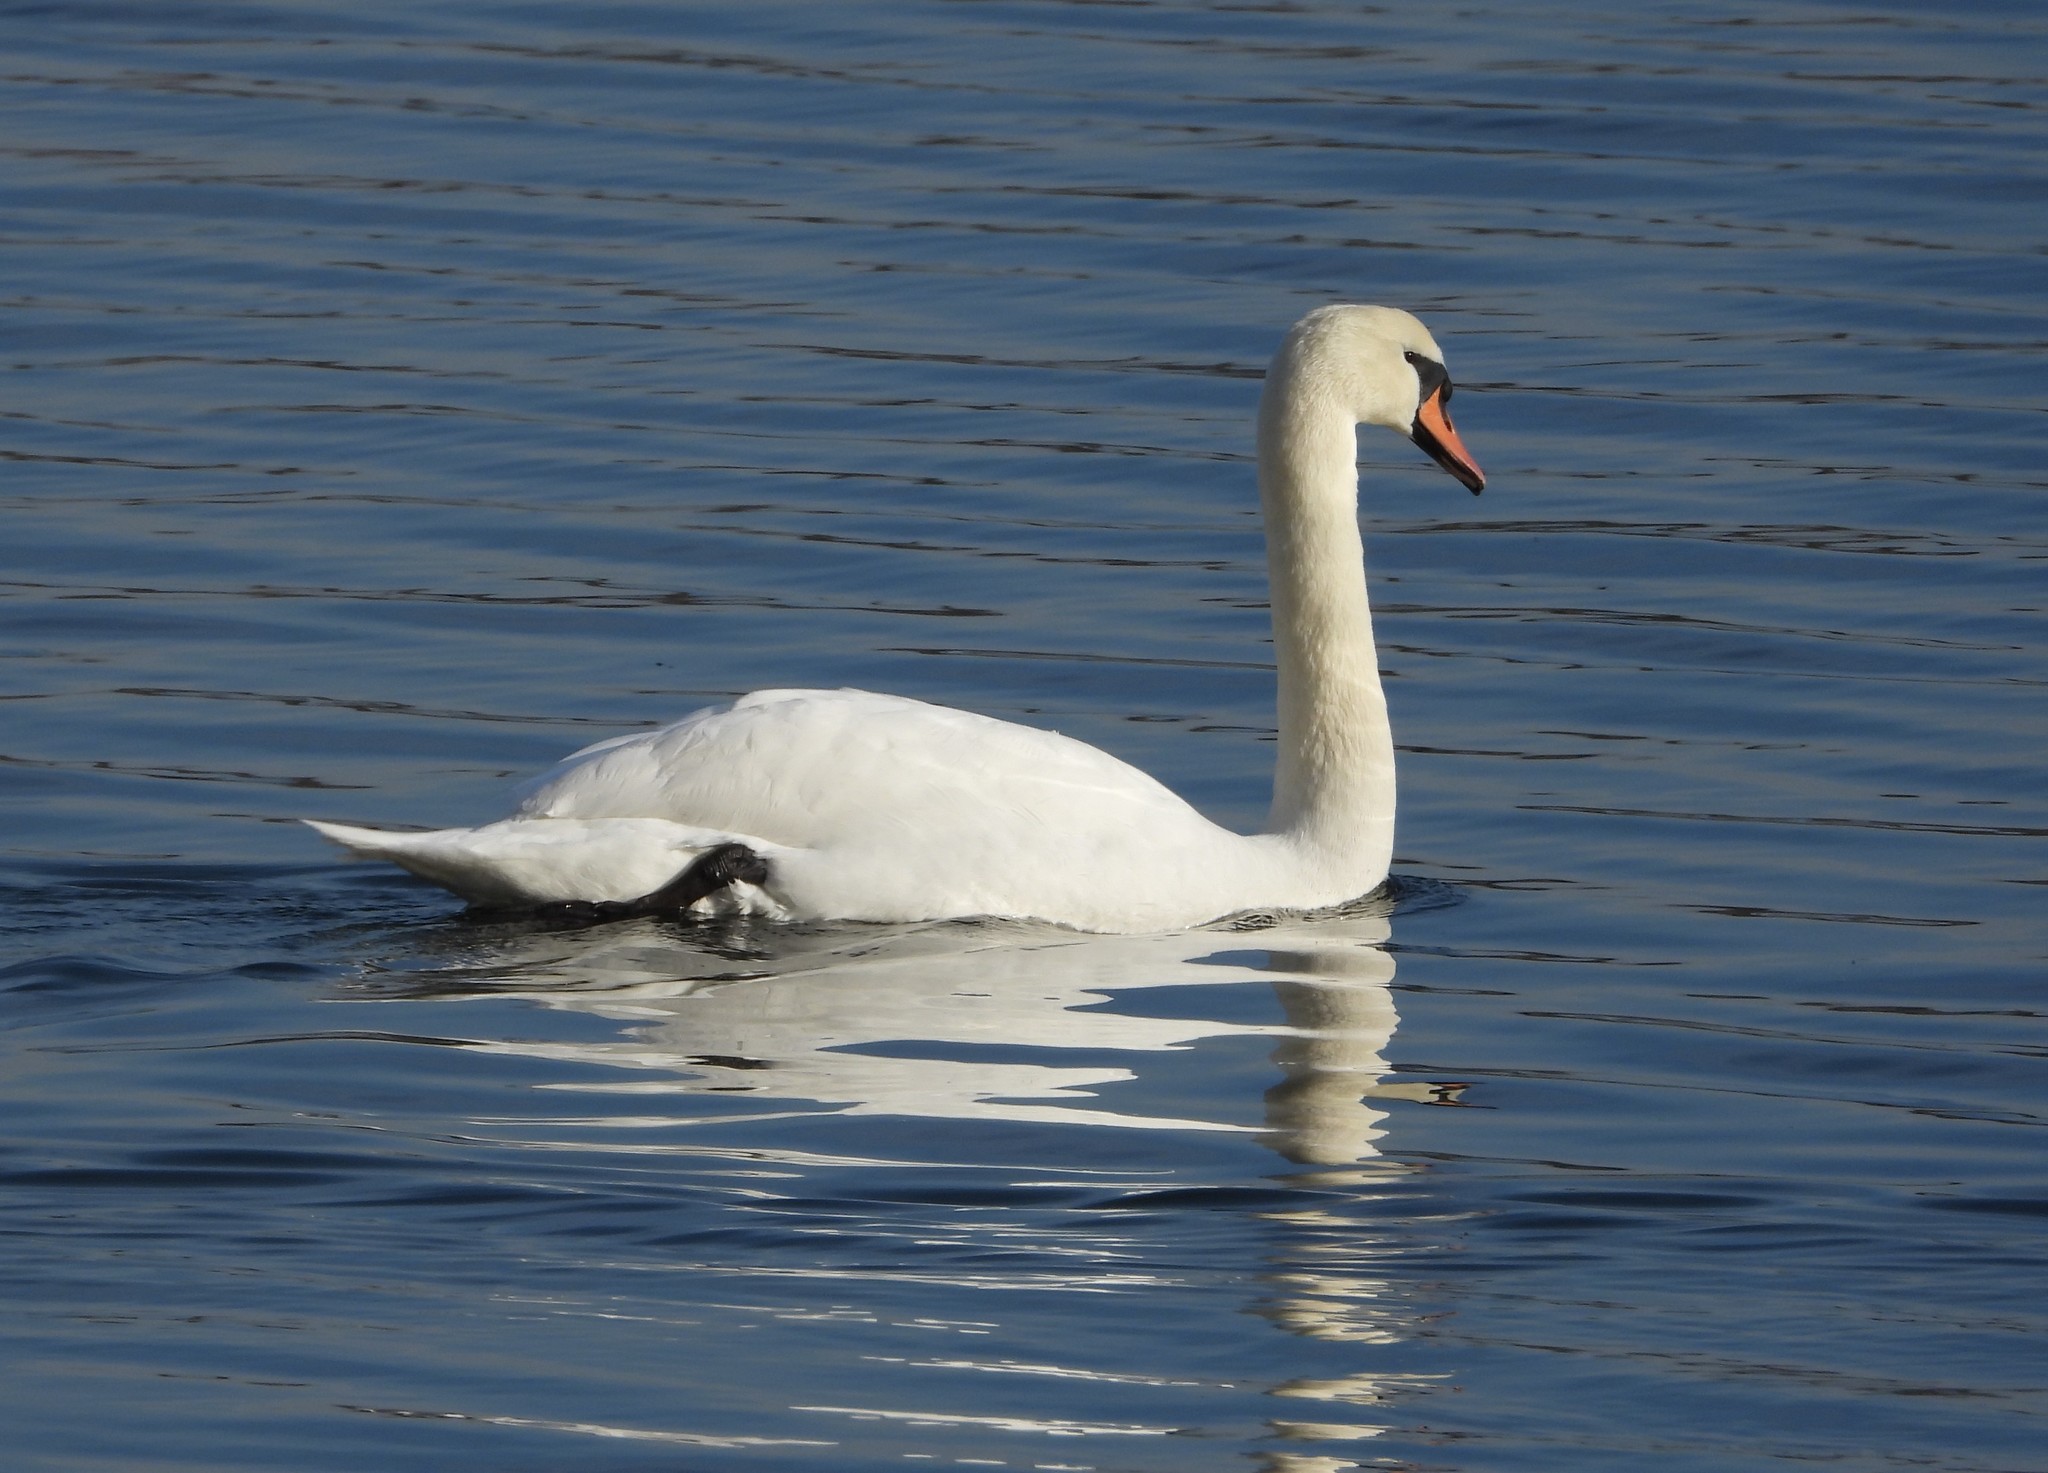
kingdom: Animalia
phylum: Chordata
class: Aves
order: Anseriformes
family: Anatidae
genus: Cygnus
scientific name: Cygnus olor
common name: Mute swan
